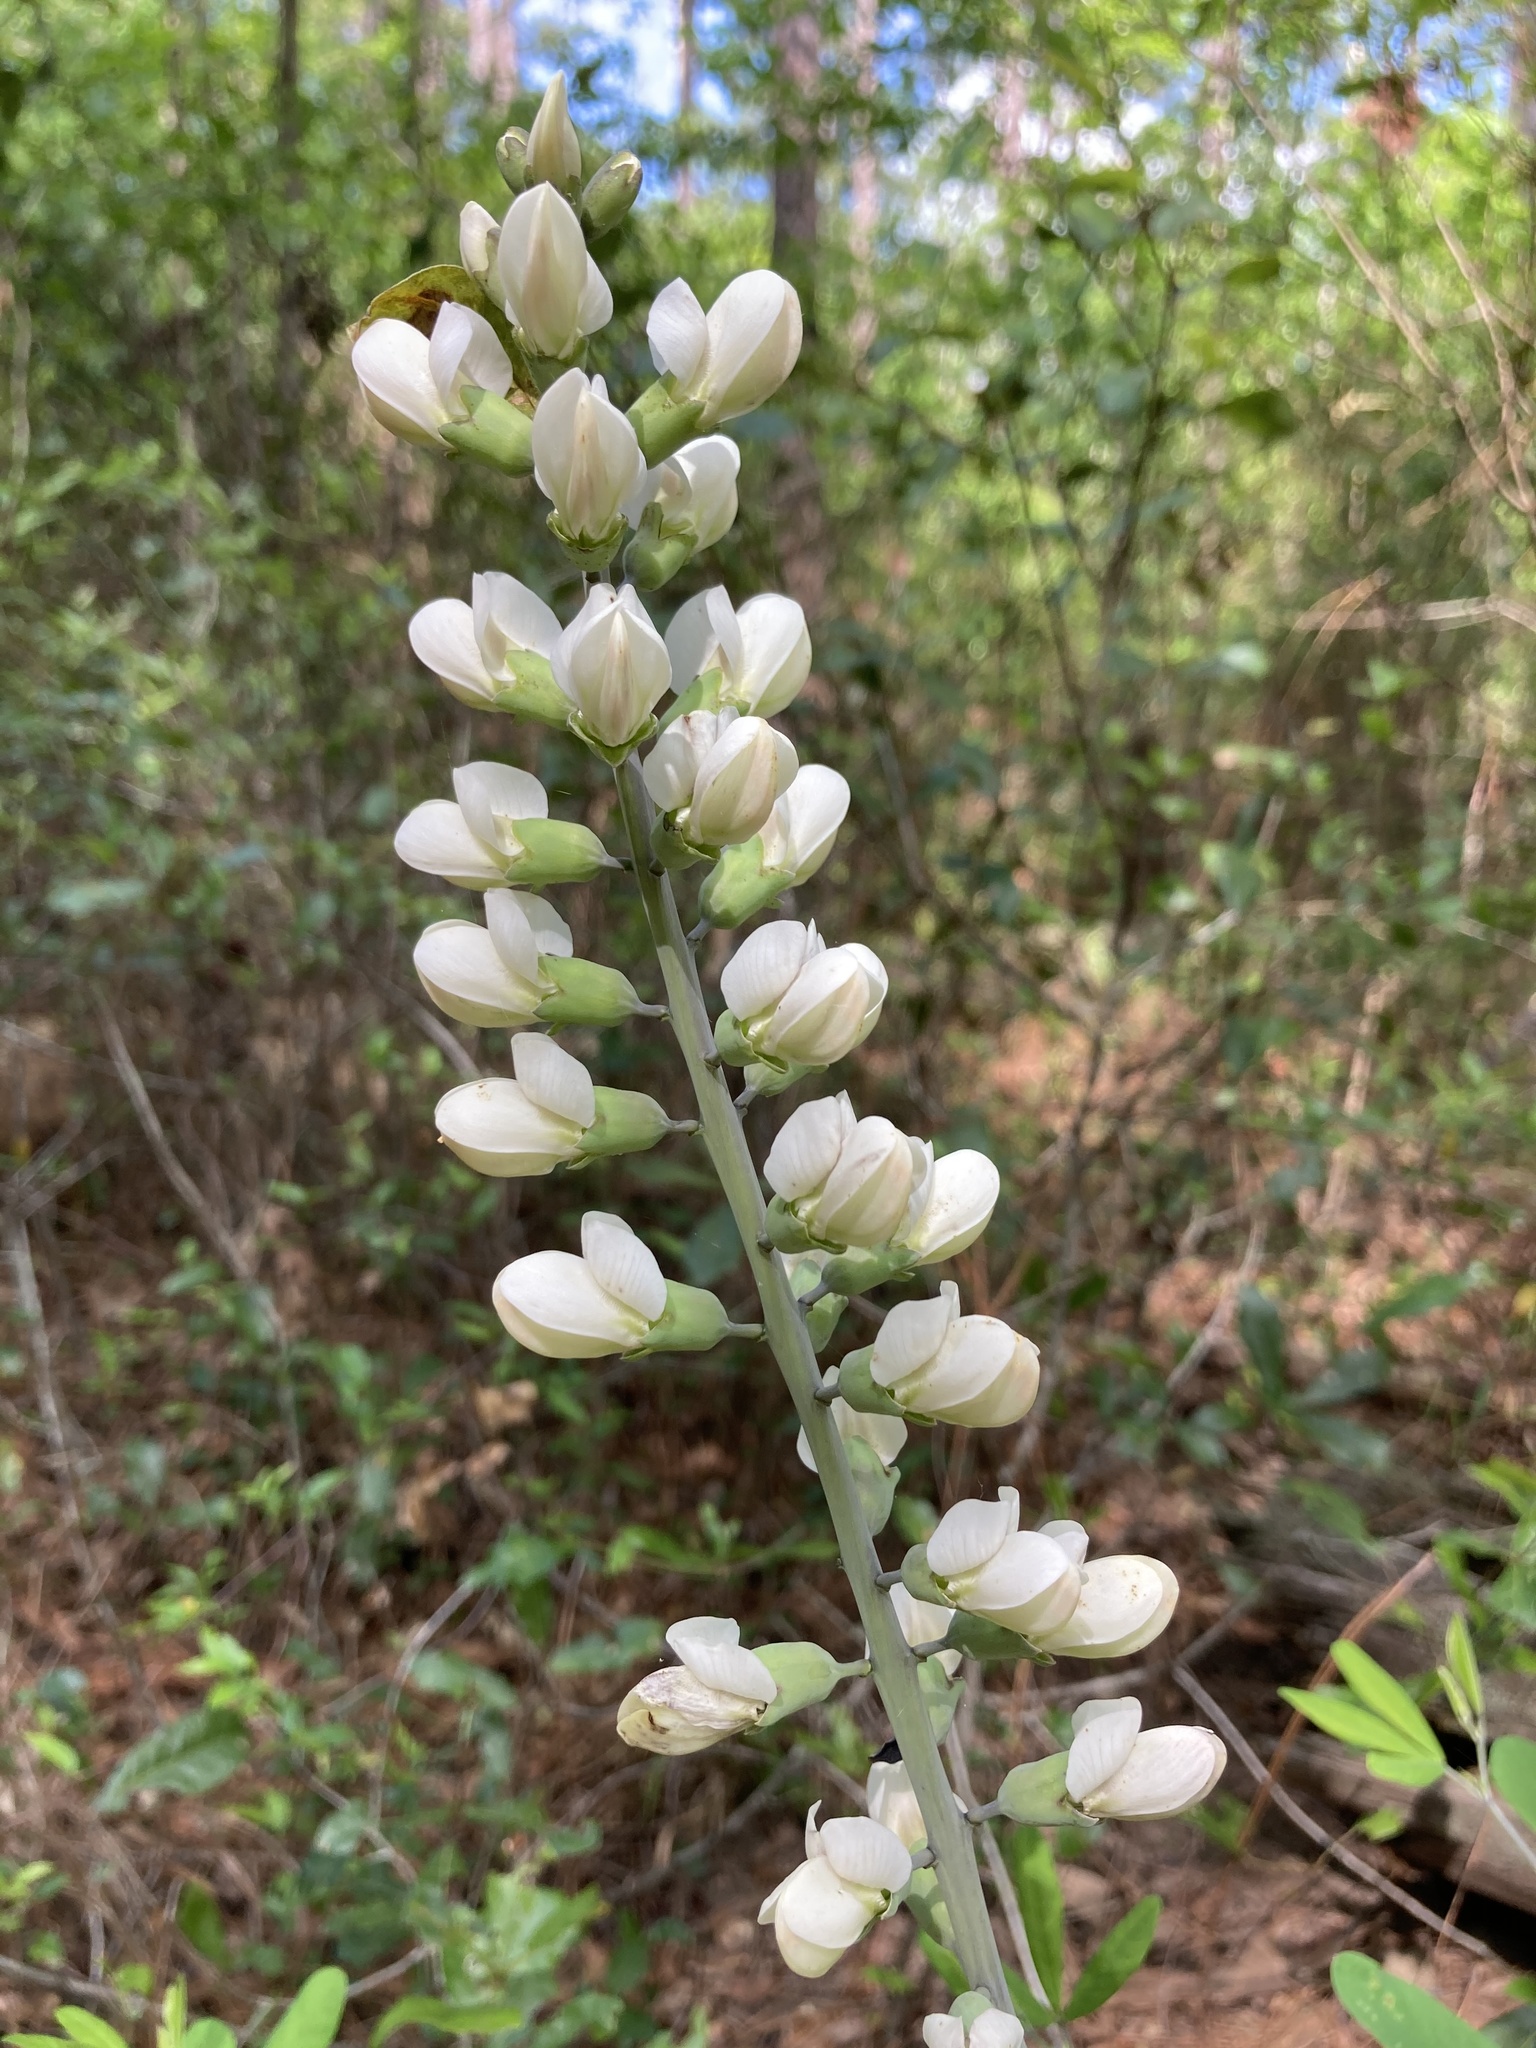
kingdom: Plantae
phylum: Tracheophyta
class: Magnoliopsida
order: Fabales
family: Fabaceae
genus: Baptisia
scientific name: Baptisia alba
